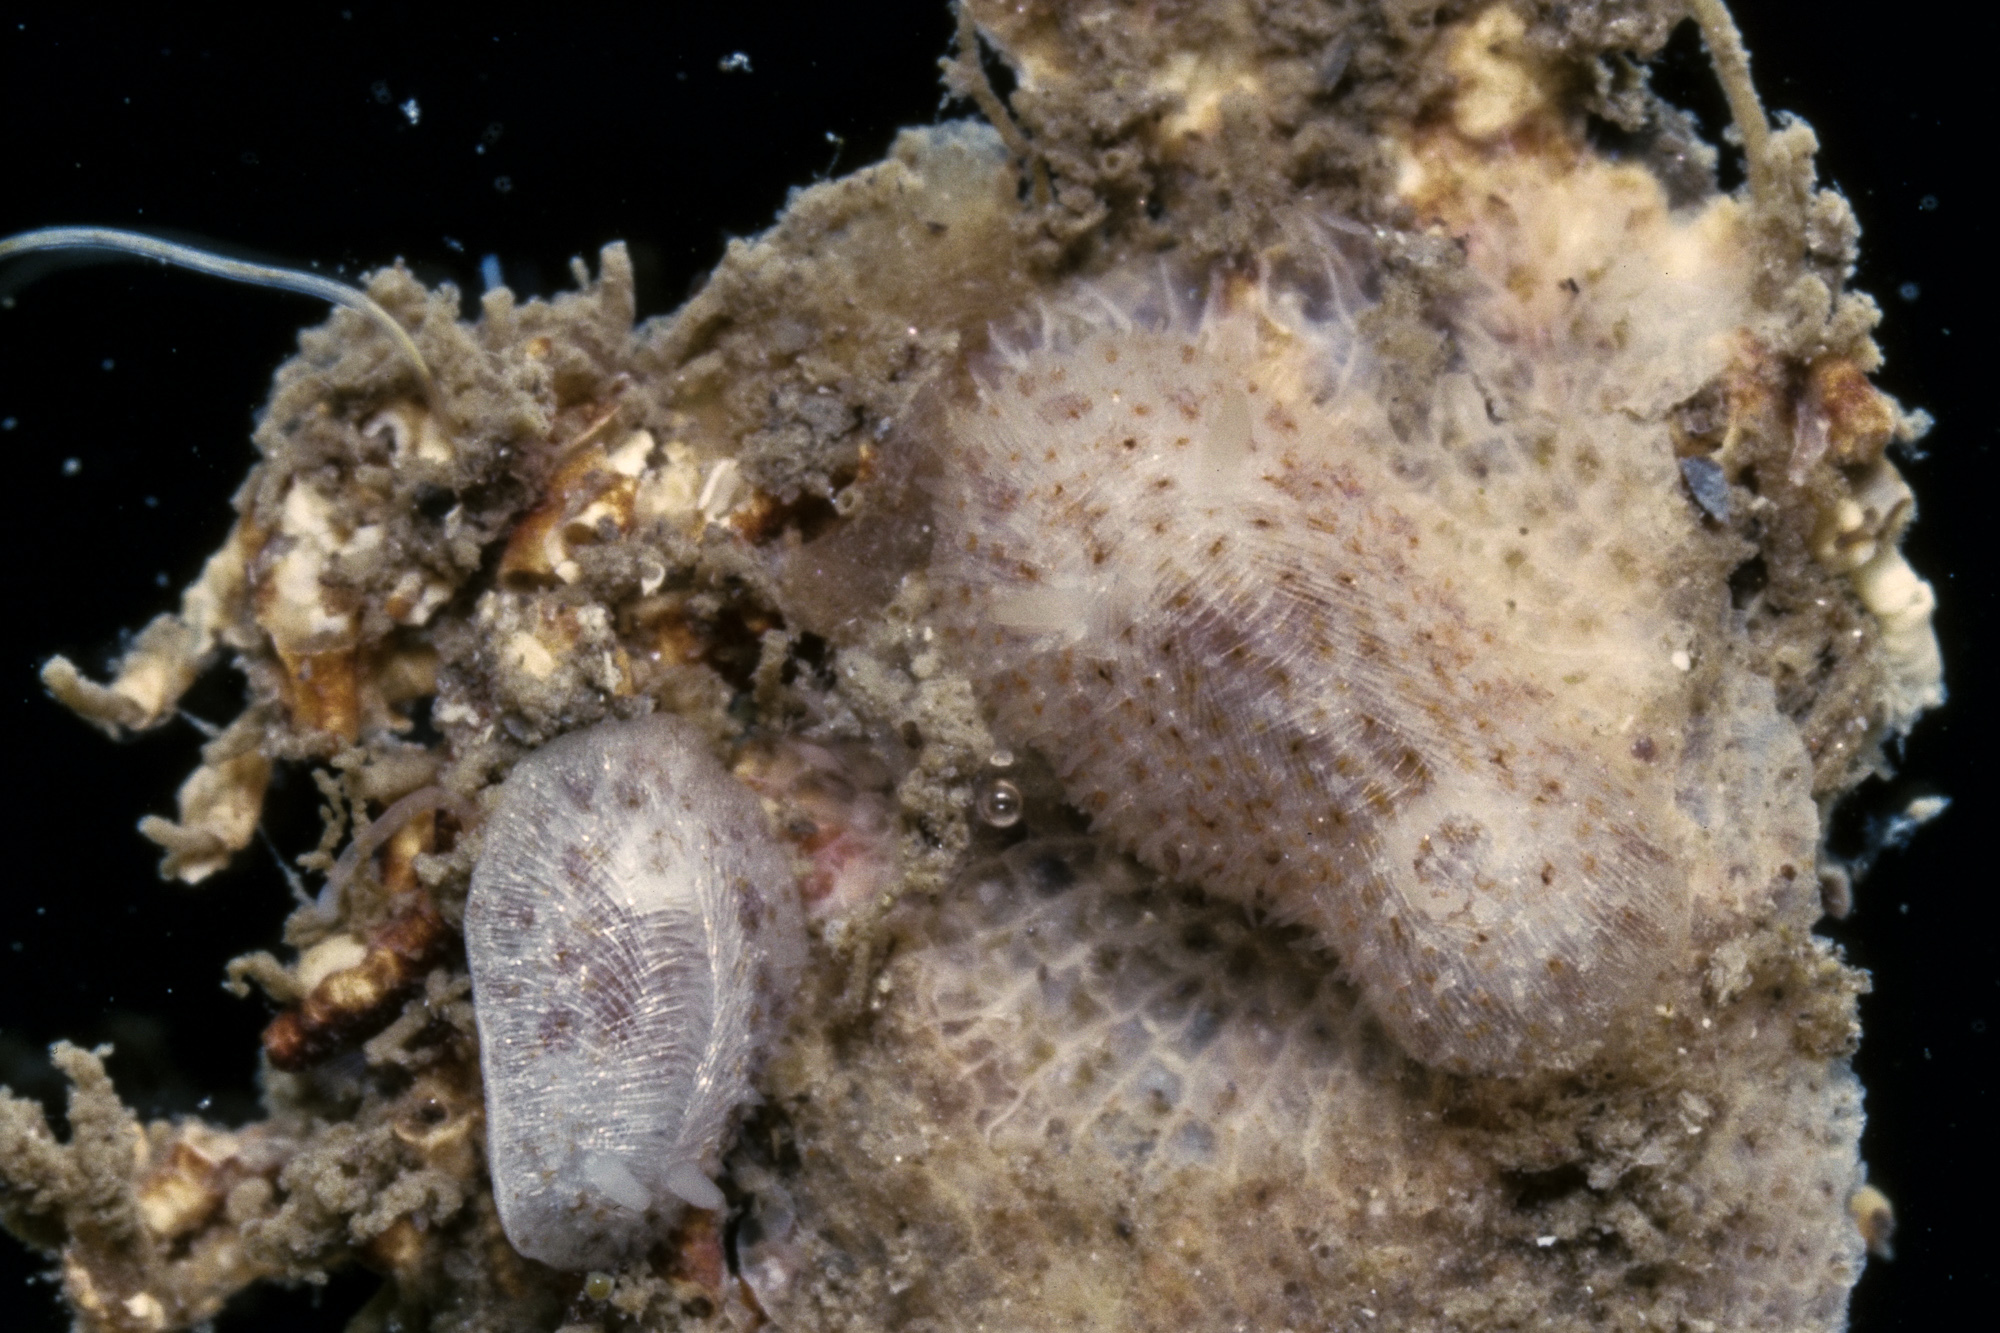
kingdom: Animalia
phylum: Mollusca
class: Gastropoda
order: Nudibranchia
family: Onchidorididae
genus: Idaliadoris
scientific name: Idaliadoris depressa
